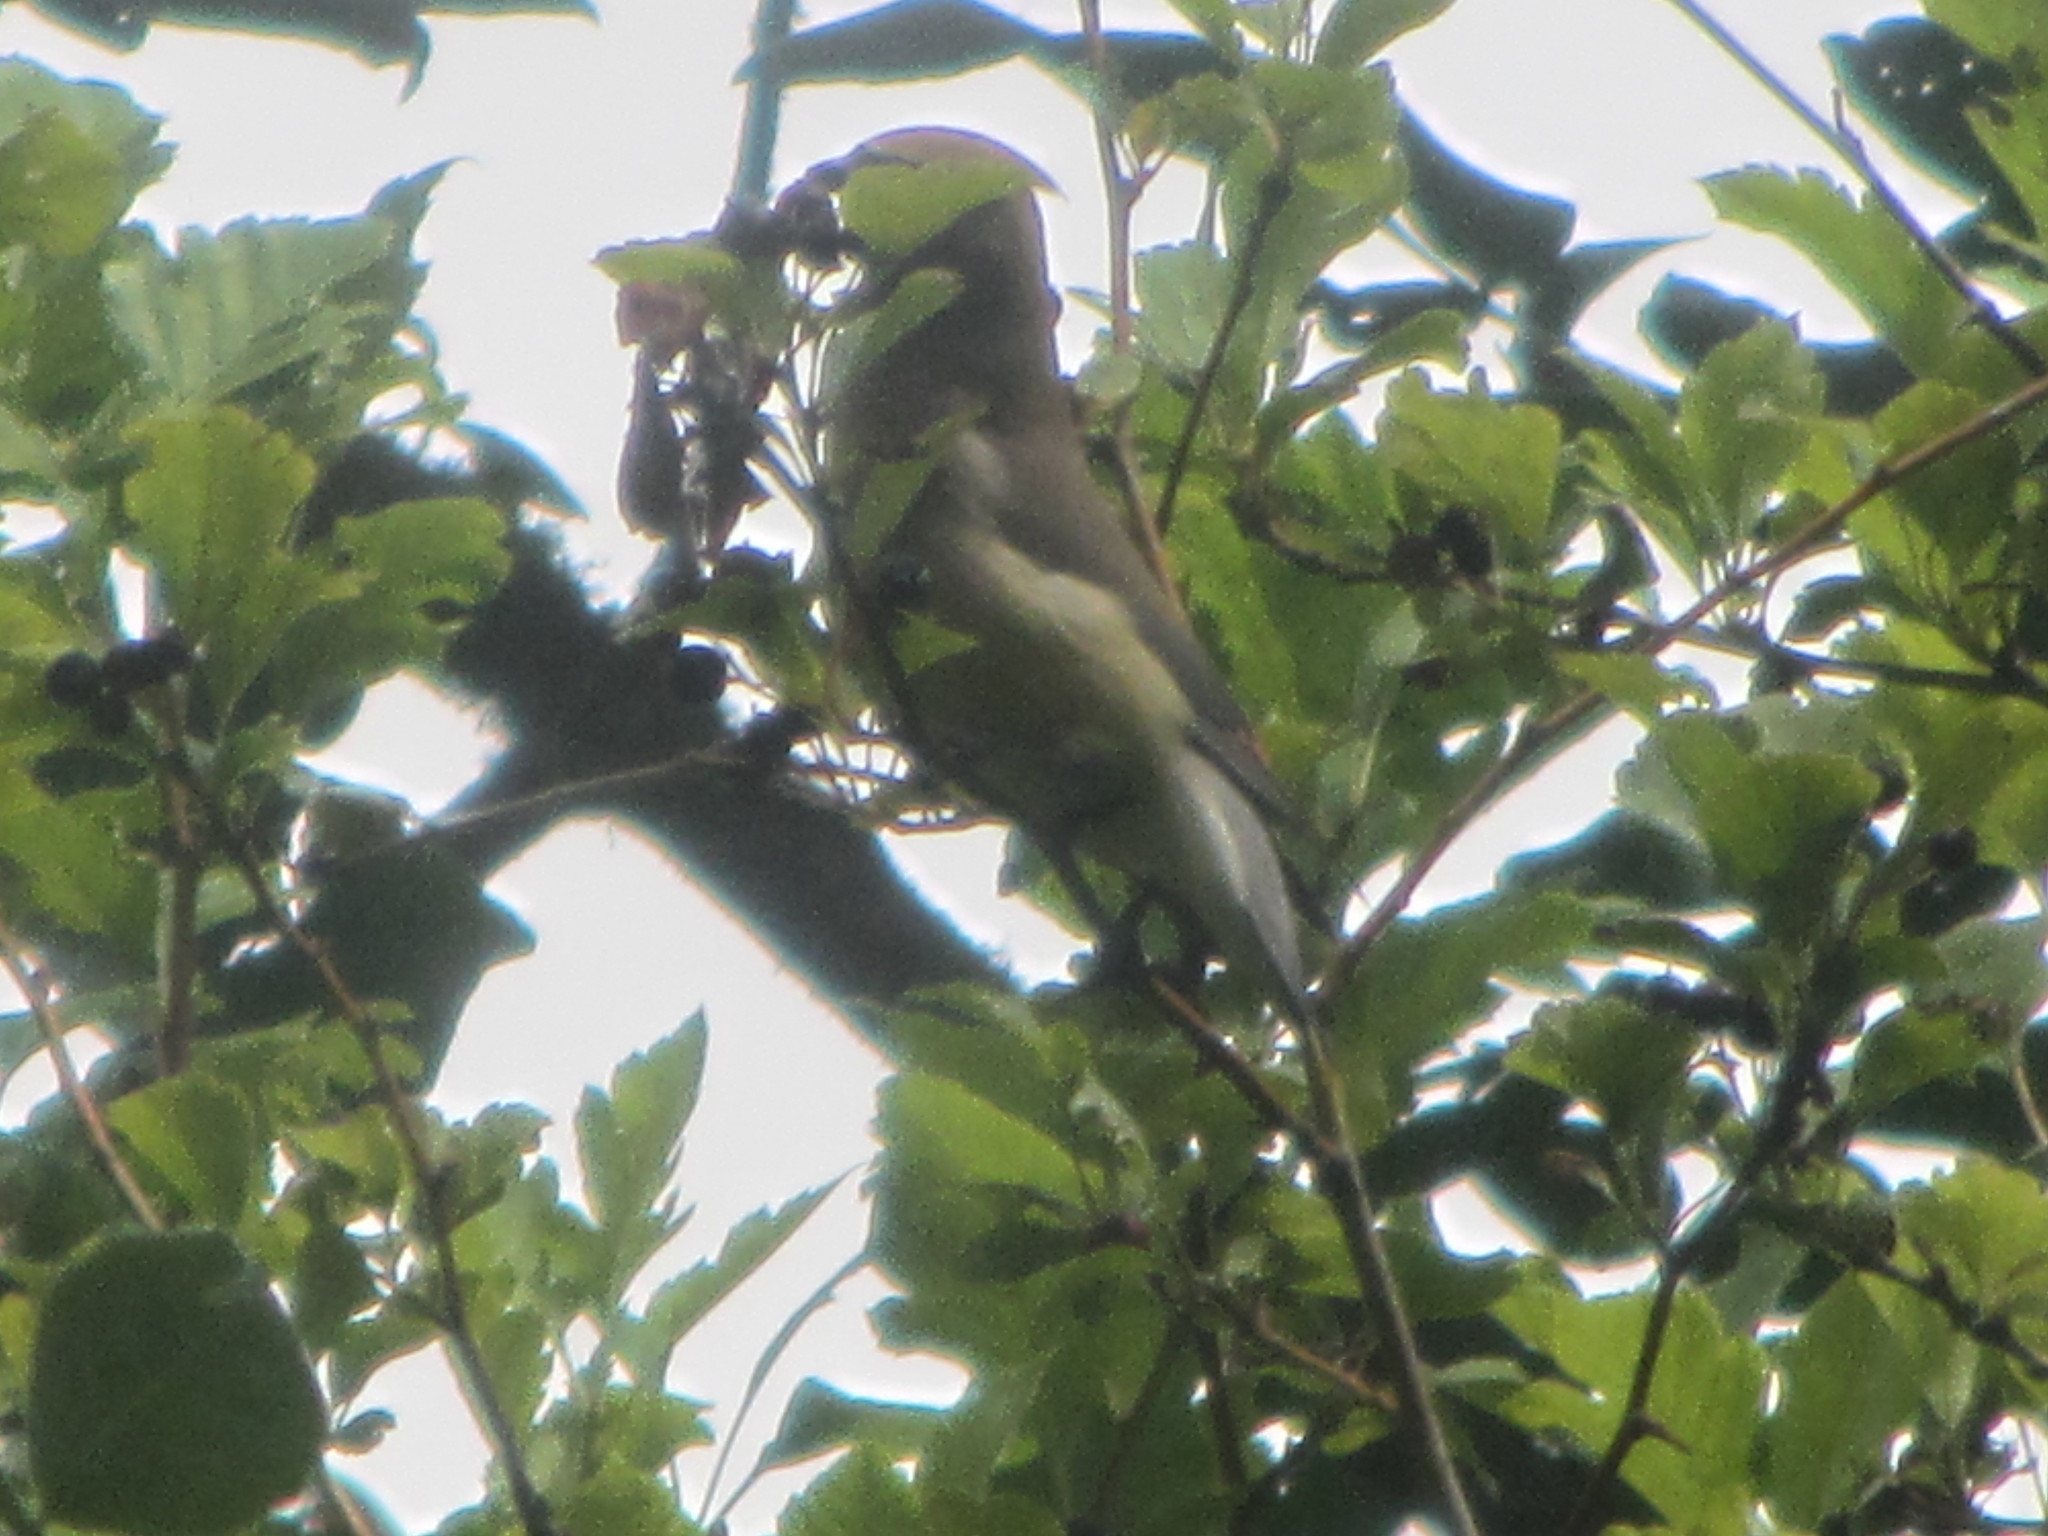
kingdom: Animalia
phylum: Chordata
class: Aves
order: Passeriformes
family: Bombycillidae
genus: Bombycilla
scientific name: Bombycilla cedrorum
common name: Cedar waxwing
